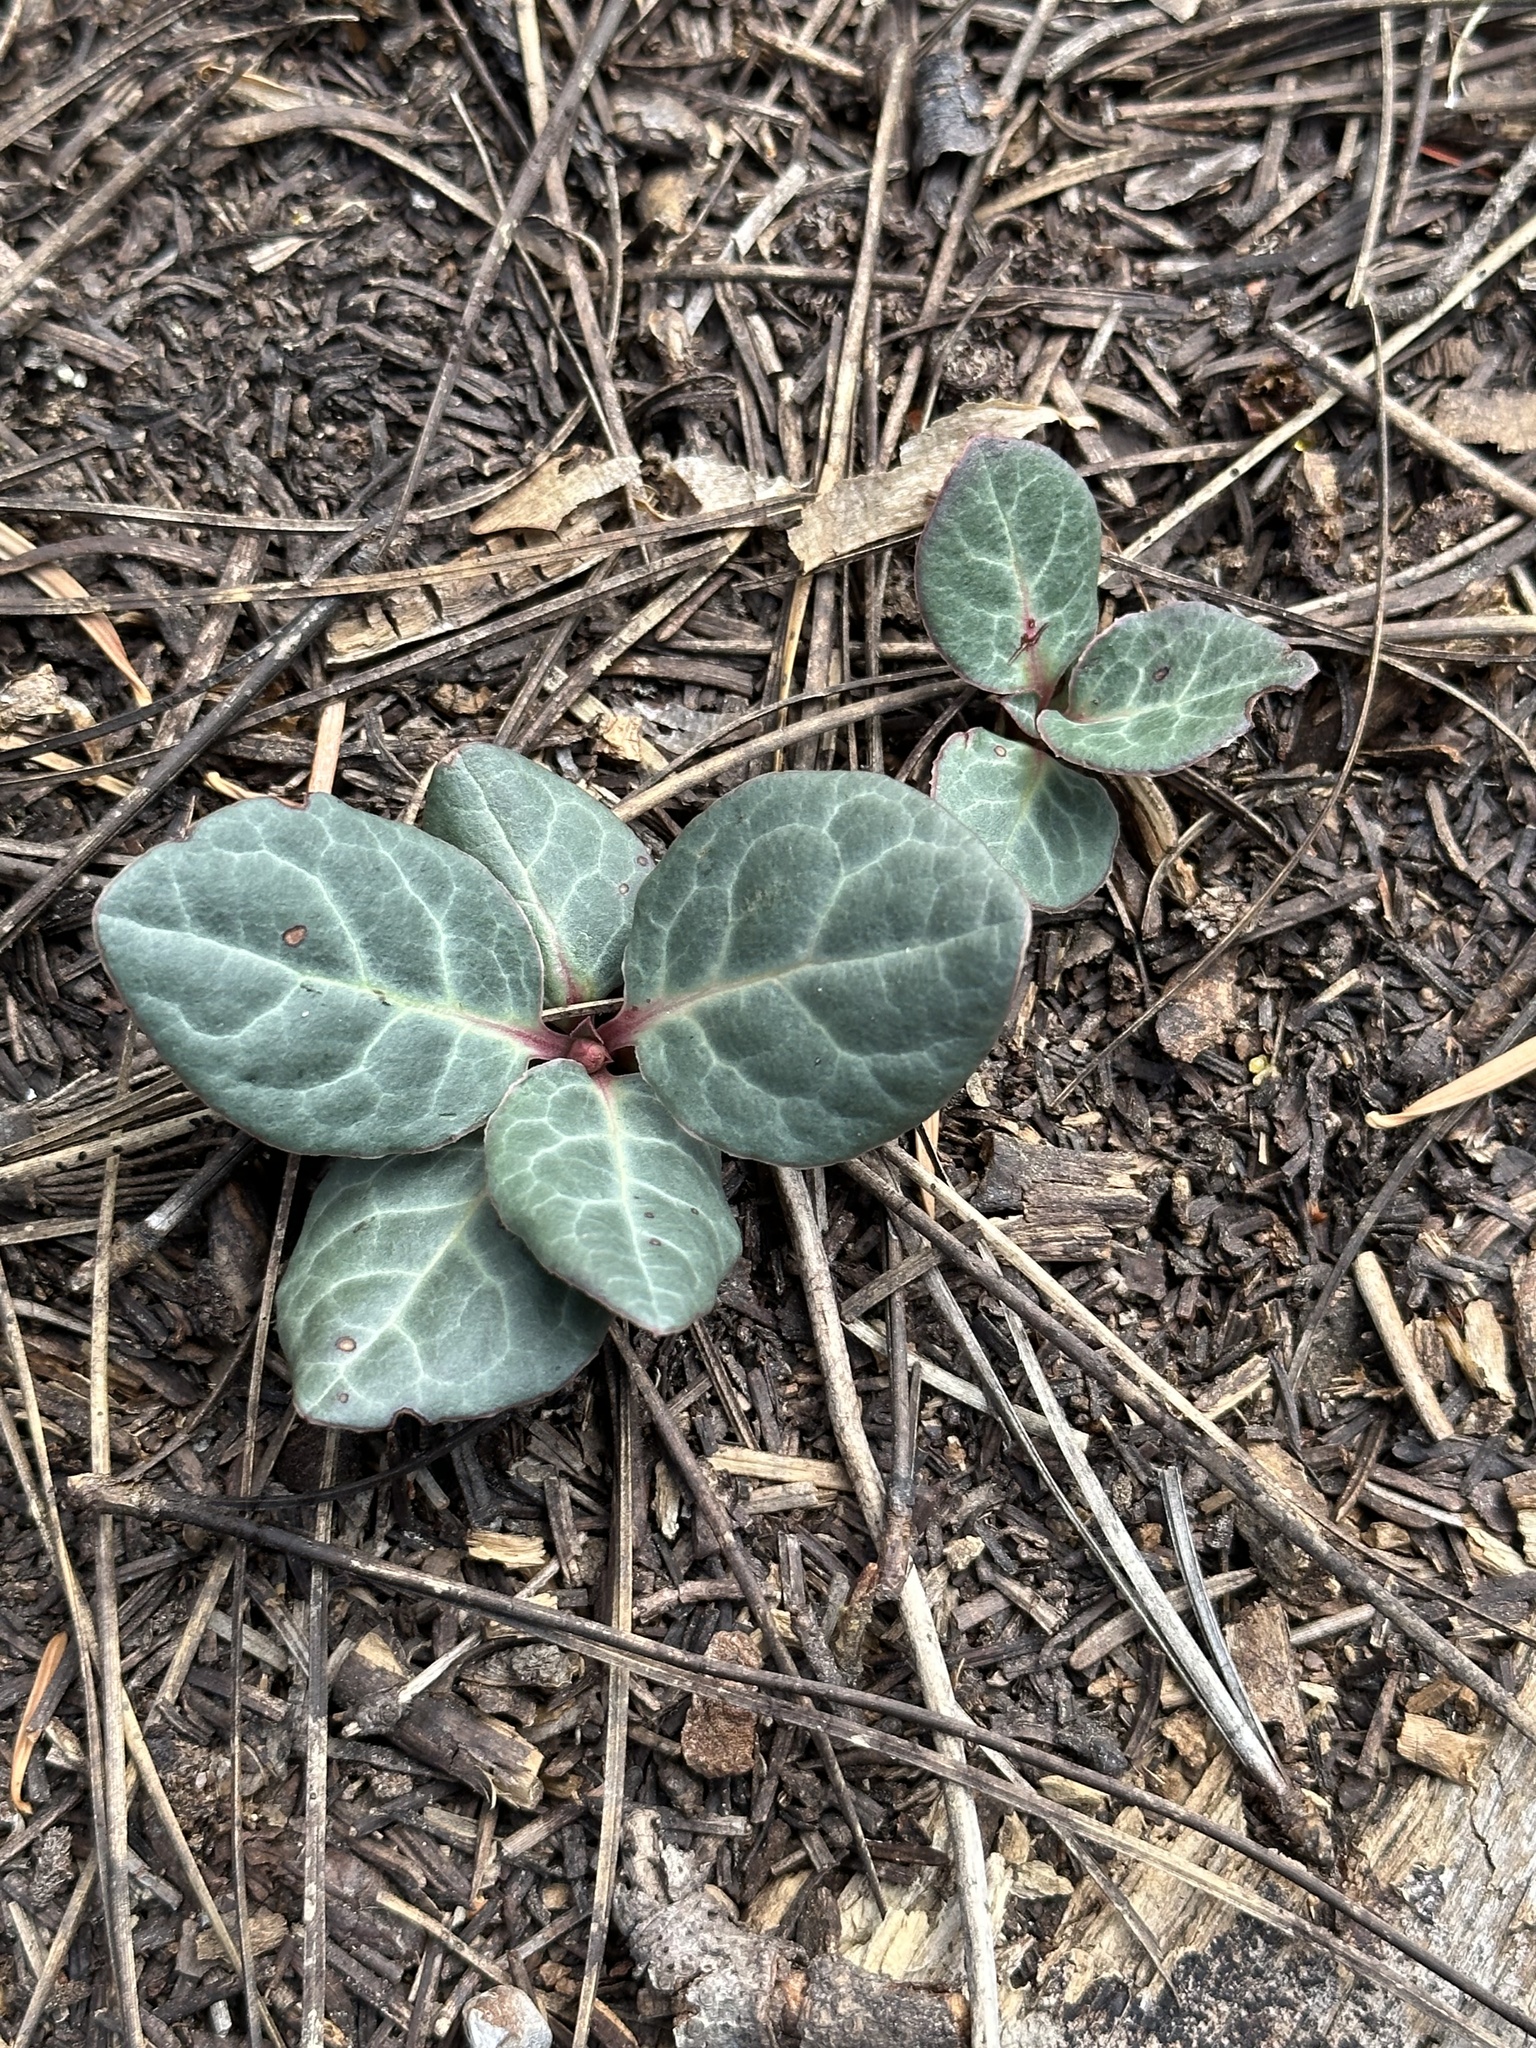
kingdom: Plantae
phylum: Tracheophyta
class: Magnoliopsida
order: Ericales
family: Ericaceae
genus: Pyrola
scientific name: Pyrola picta
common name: White-vein wintergreen
